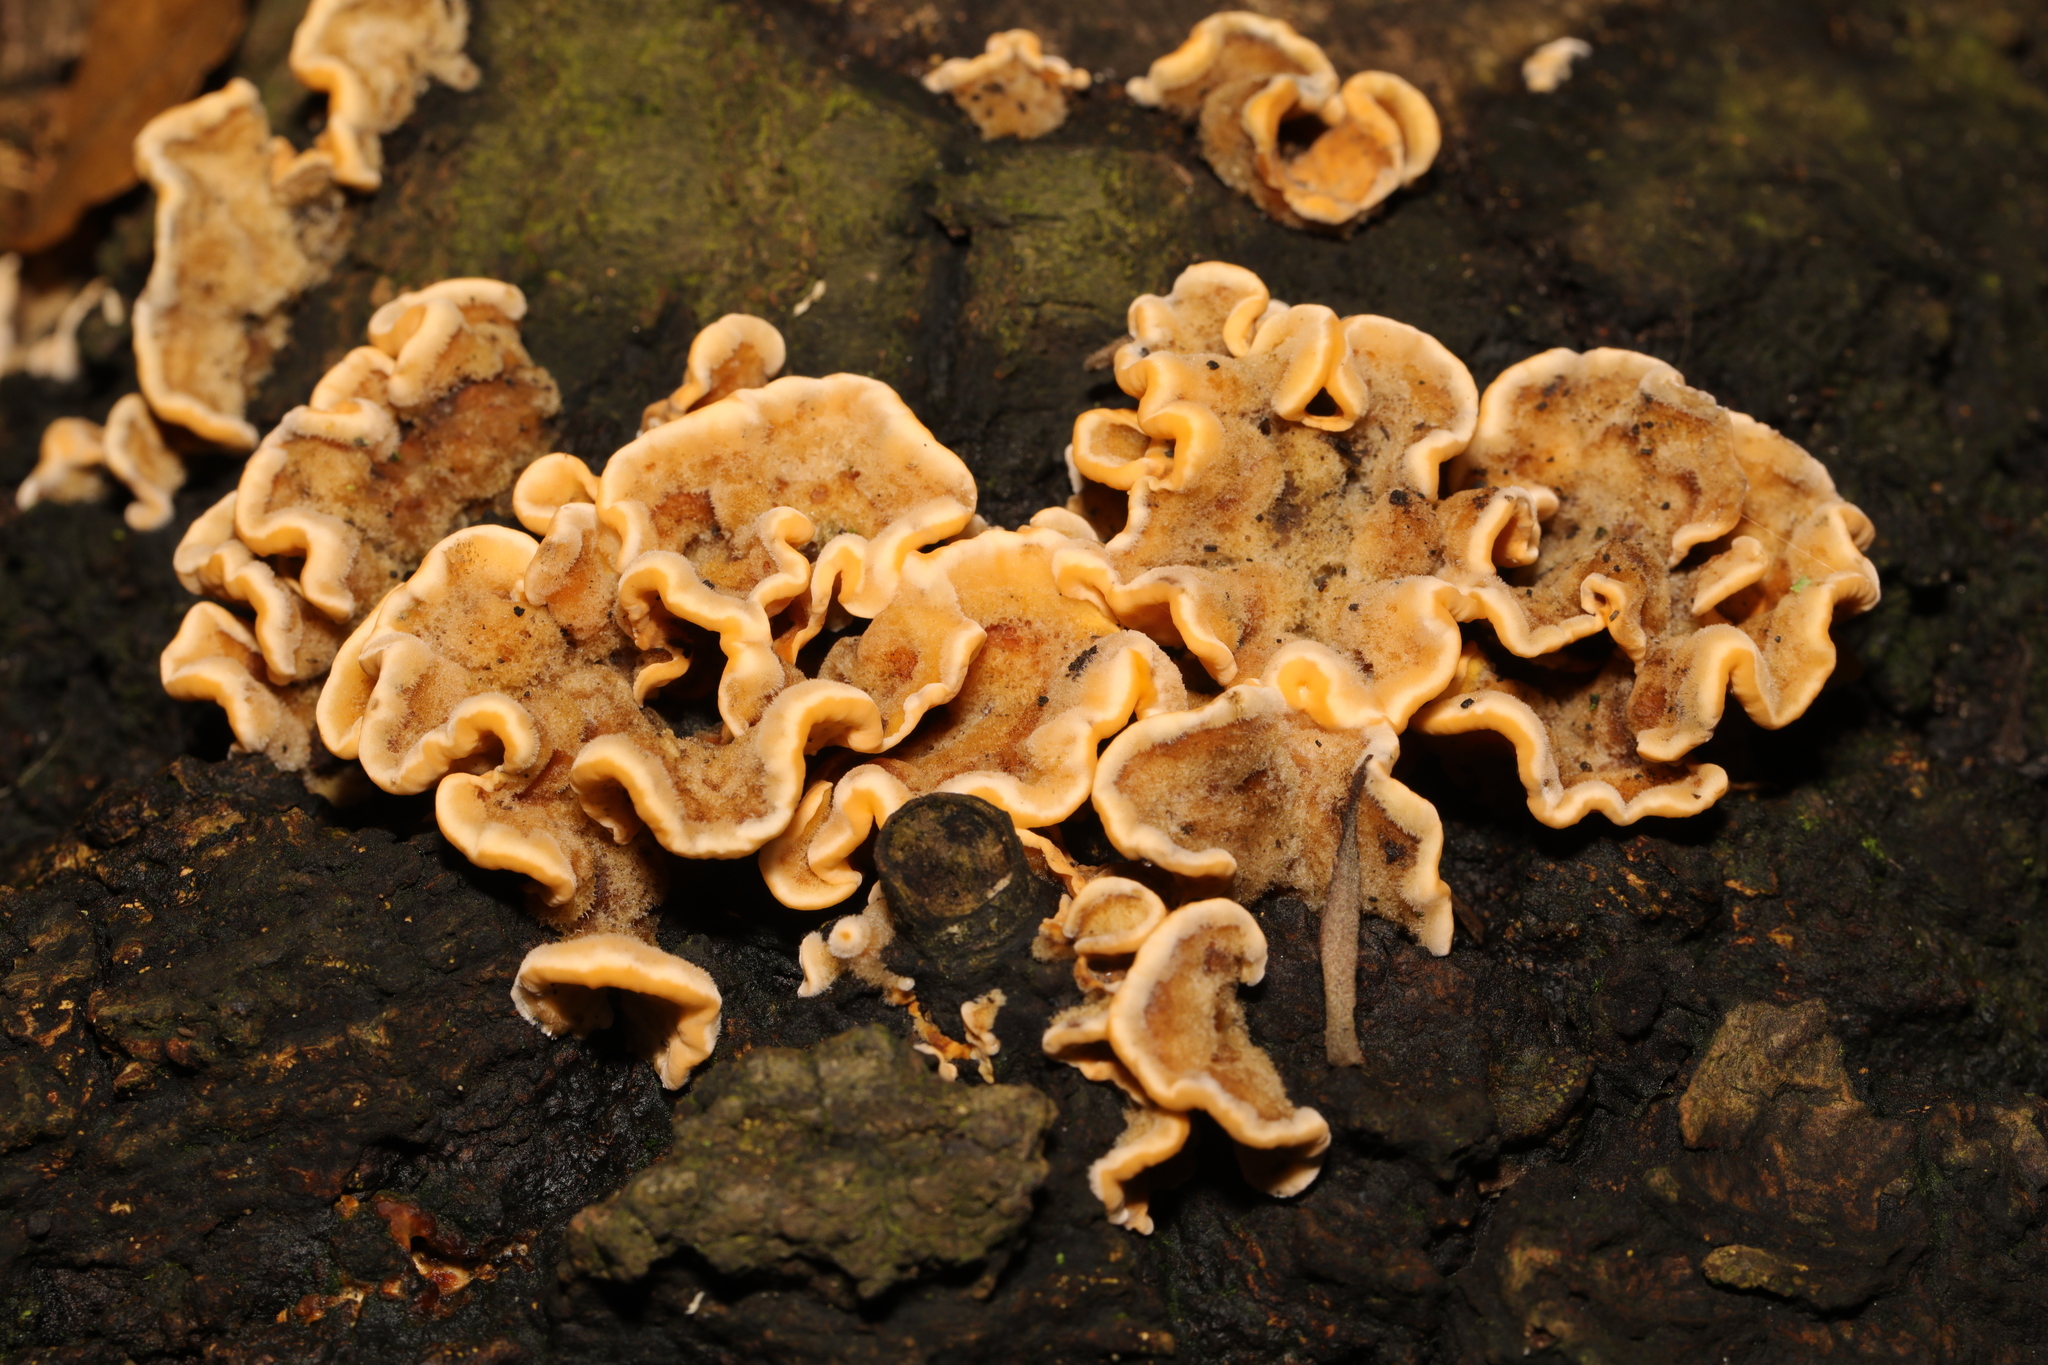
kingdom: Fungi
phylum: Basidiomycota
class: Agaricomycetes
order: Russulales
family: Stereaceae
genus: Stereum
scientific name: Stereum hirsutum
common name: Hairy curtain crust
